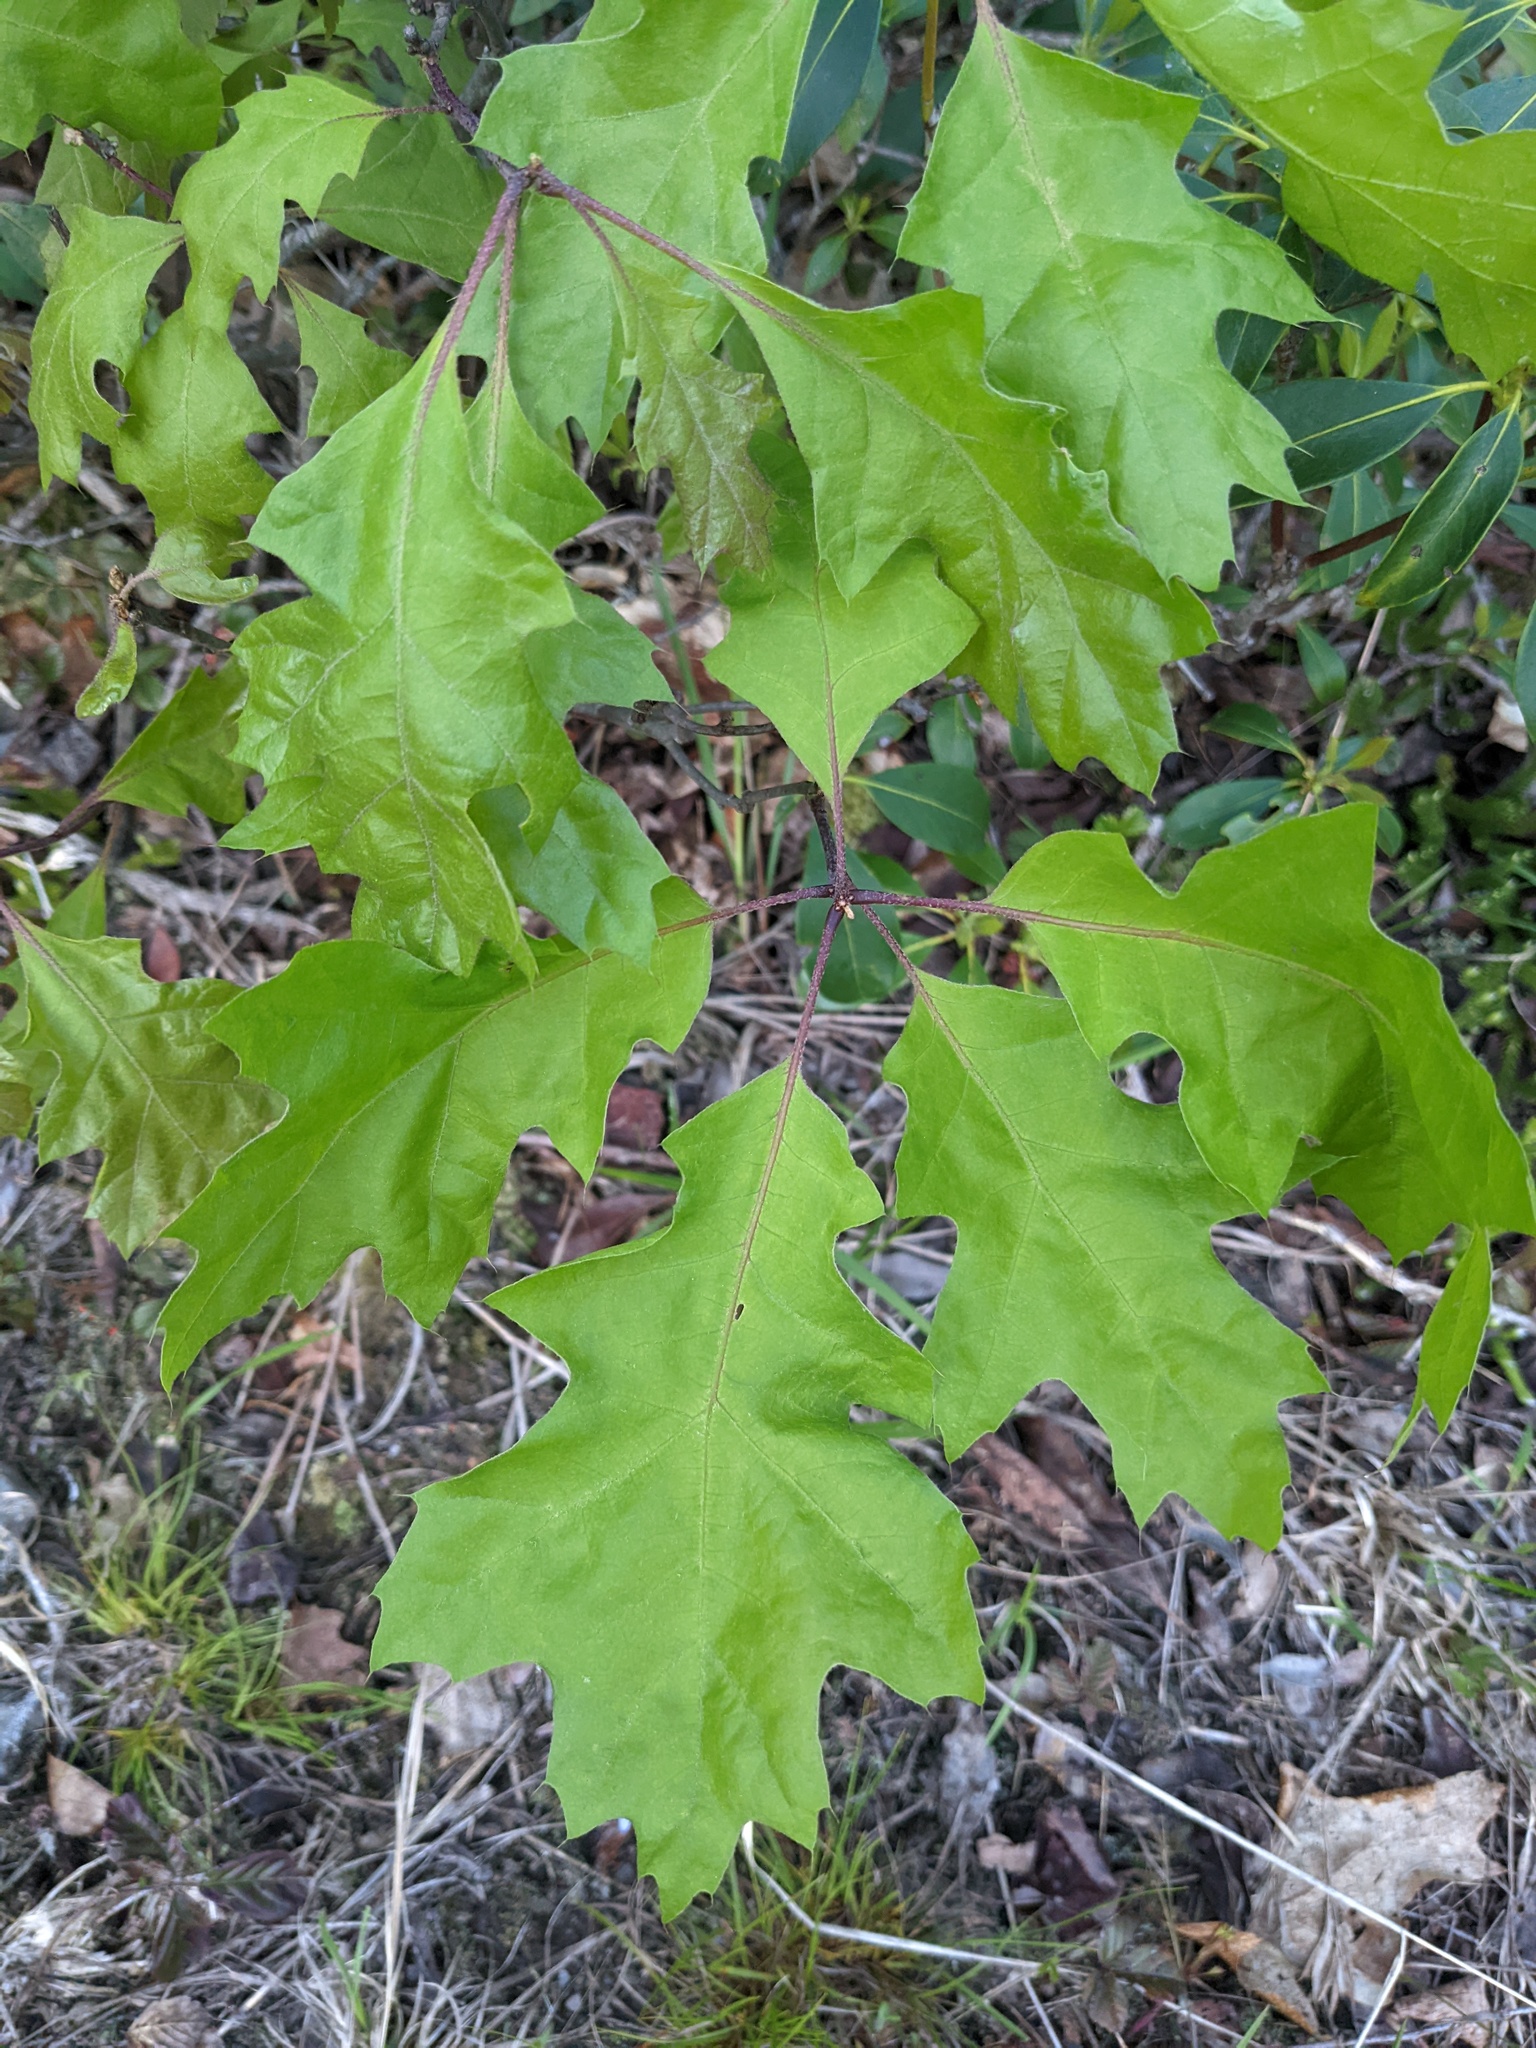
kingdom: Plantae
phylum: Tracheophyta
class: Magnoliopsida
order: Fagales
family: Fagaceae
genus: Quercus
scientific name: Quercus rubra
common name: Red oak
